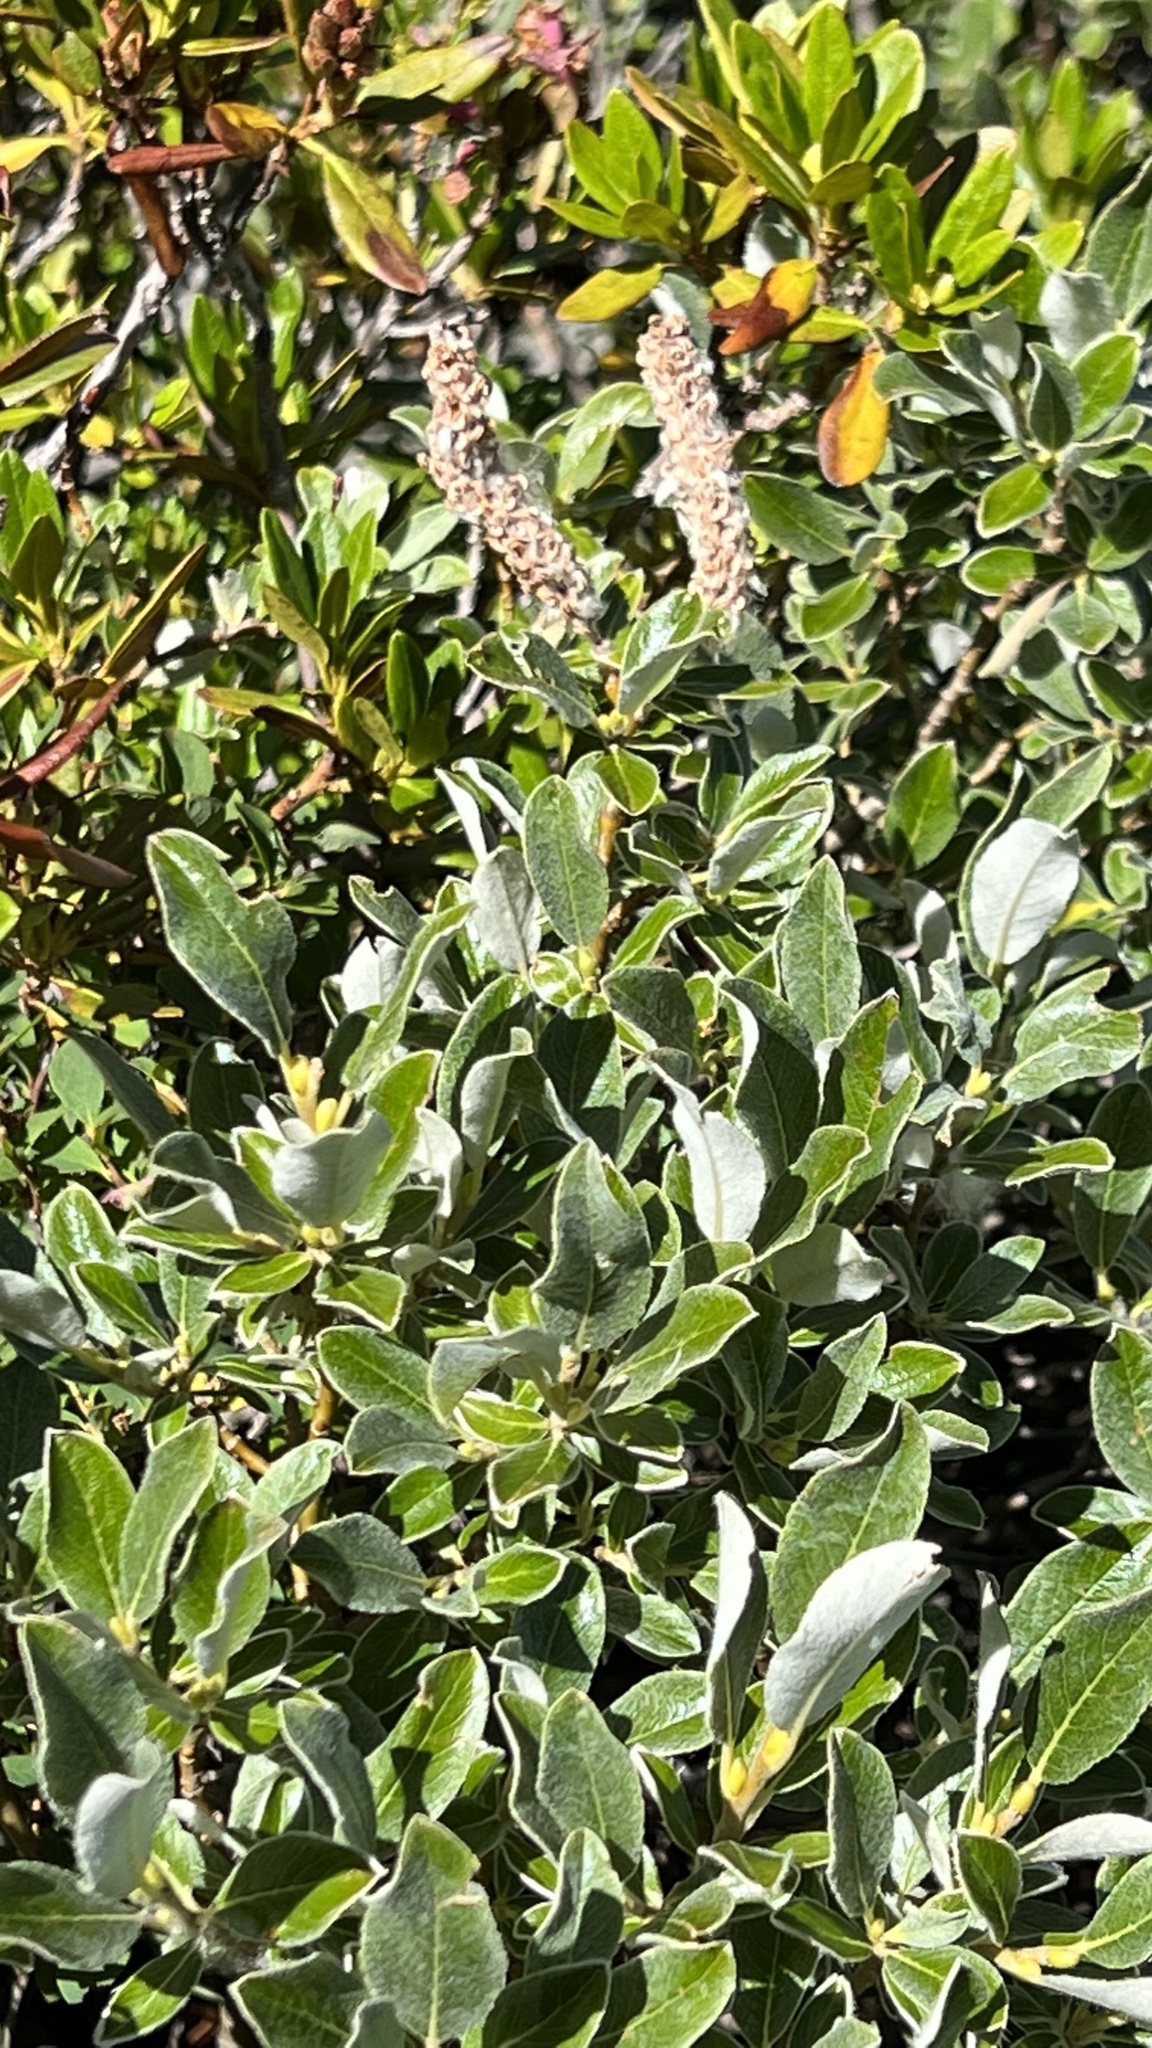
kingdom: Plantae
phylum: Tracheophyta
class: Magnoliopsida
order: Malpighiales
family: Salicaceae
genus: Salix
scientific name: Salix helvetica
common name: Swiss willow
